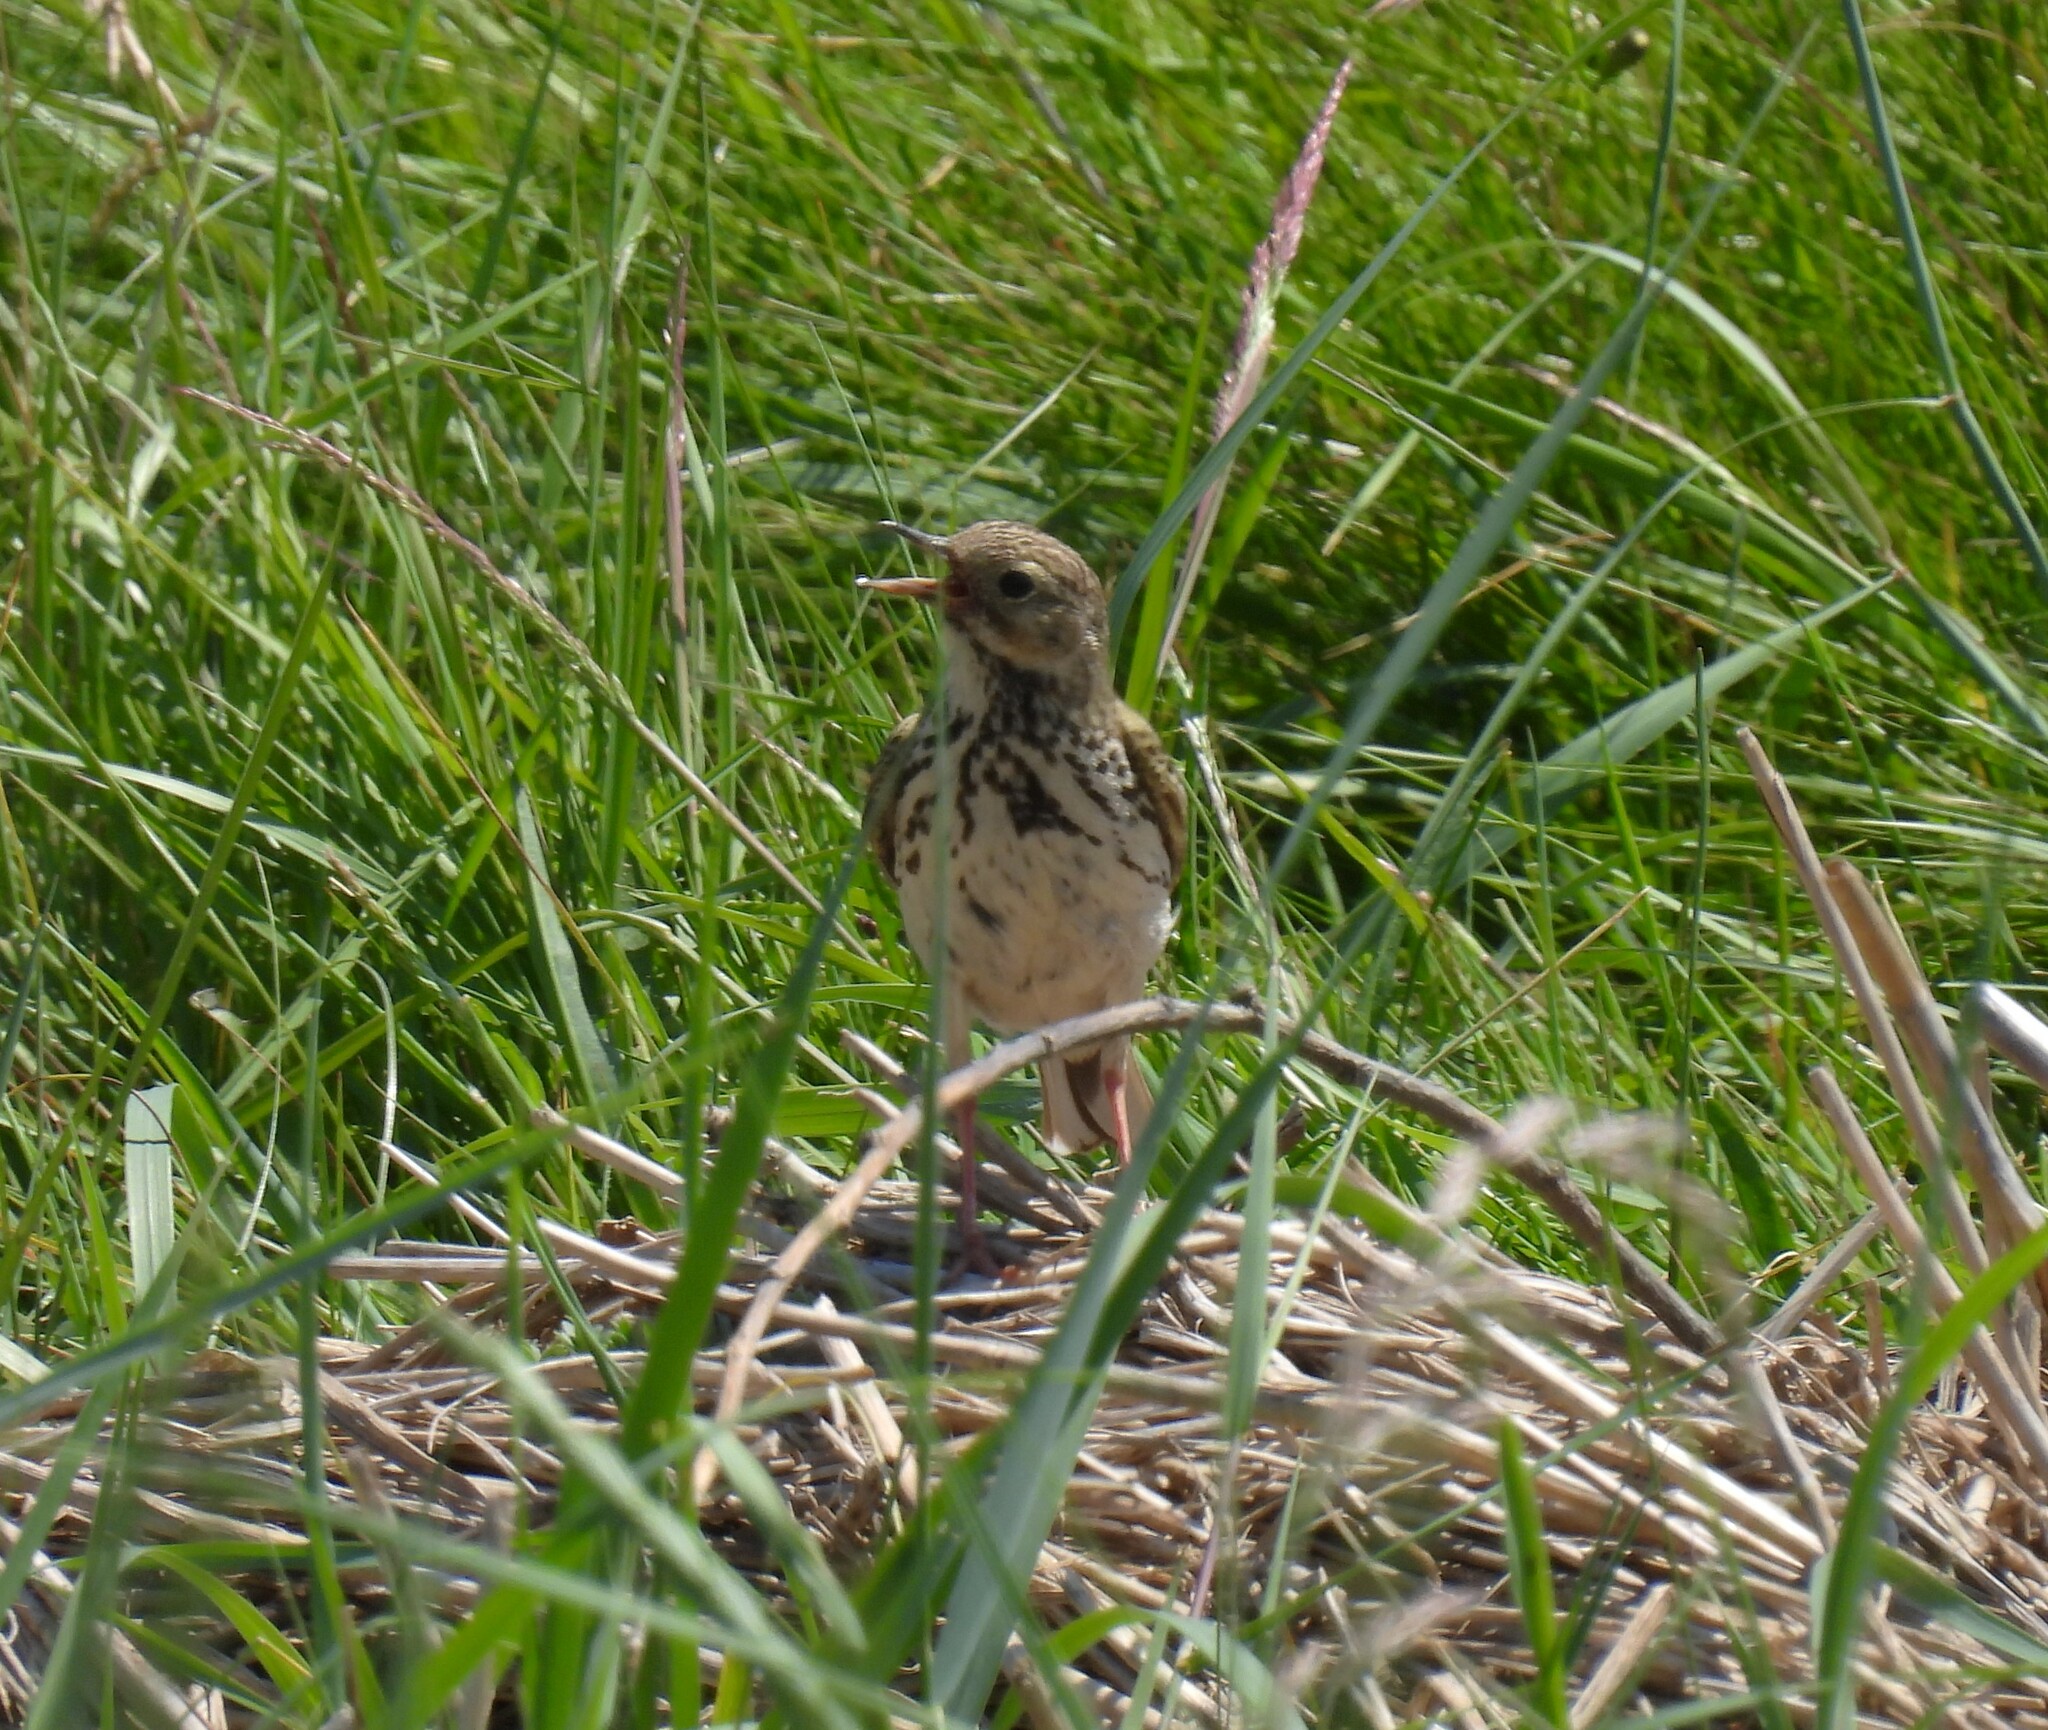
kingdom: Animalia
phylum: Chordata
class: Aves
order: Passeriformes
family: Motacillidae
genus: Anthus
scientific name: Anthus pratensis
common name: Meadow pipit
